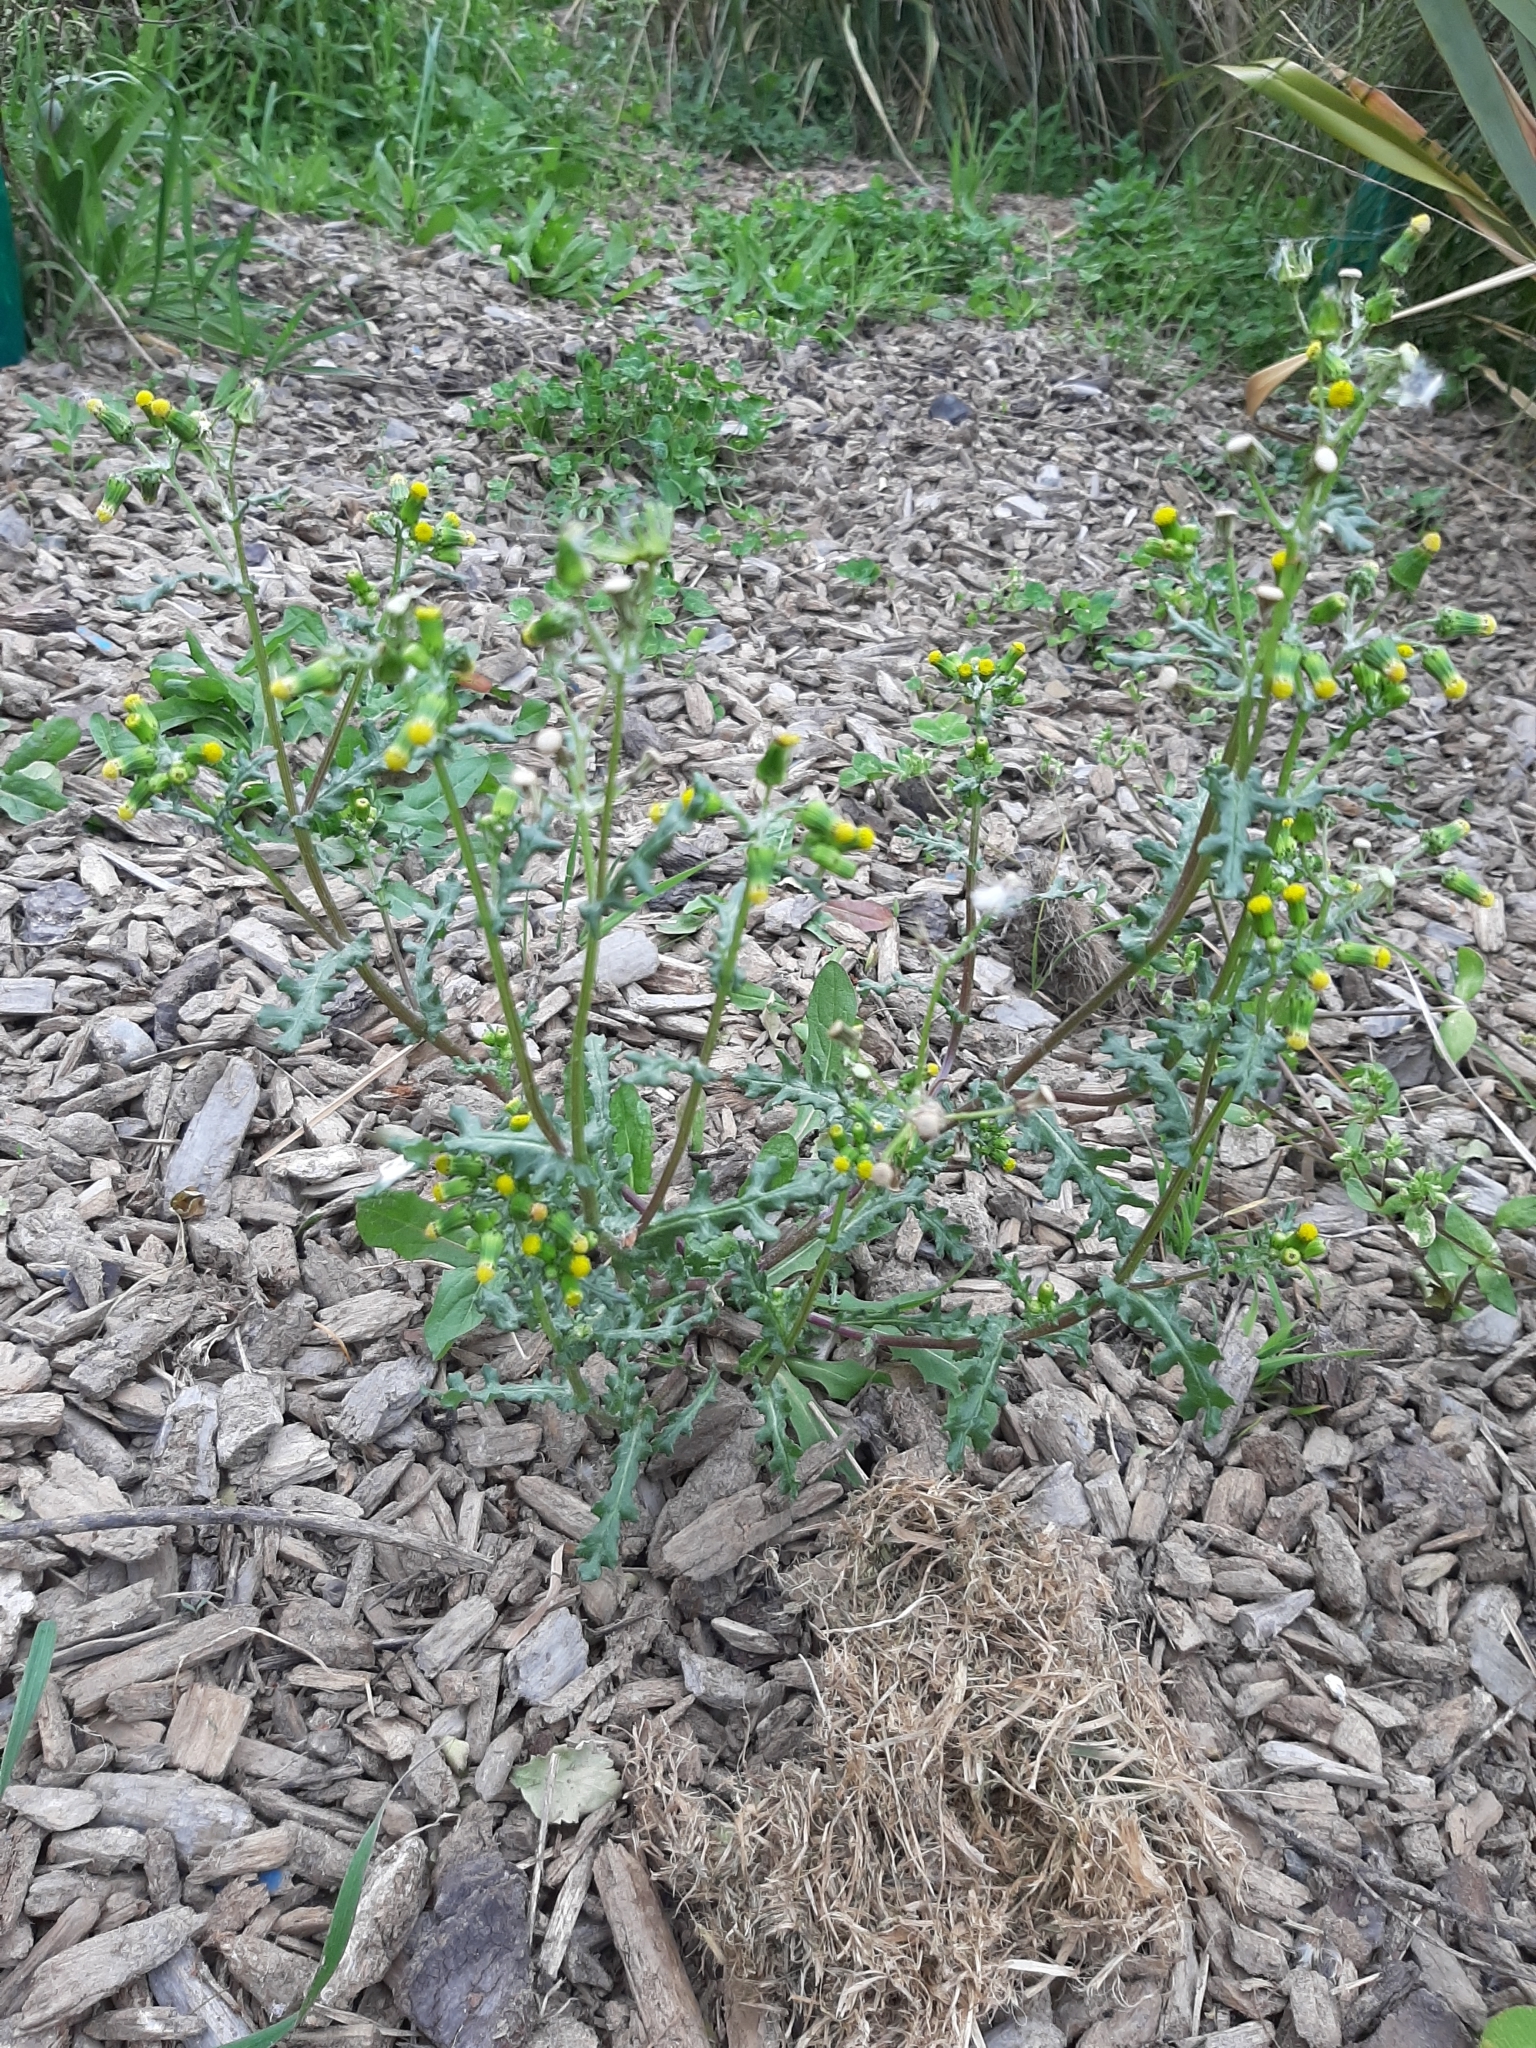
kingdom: Plantae
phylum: Tracheophyta
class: Magnoliopsida
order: Asterales
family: Asteraceae
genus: Senecio
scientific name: Senecio vulgaris
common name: Old-man-in-the-spring
